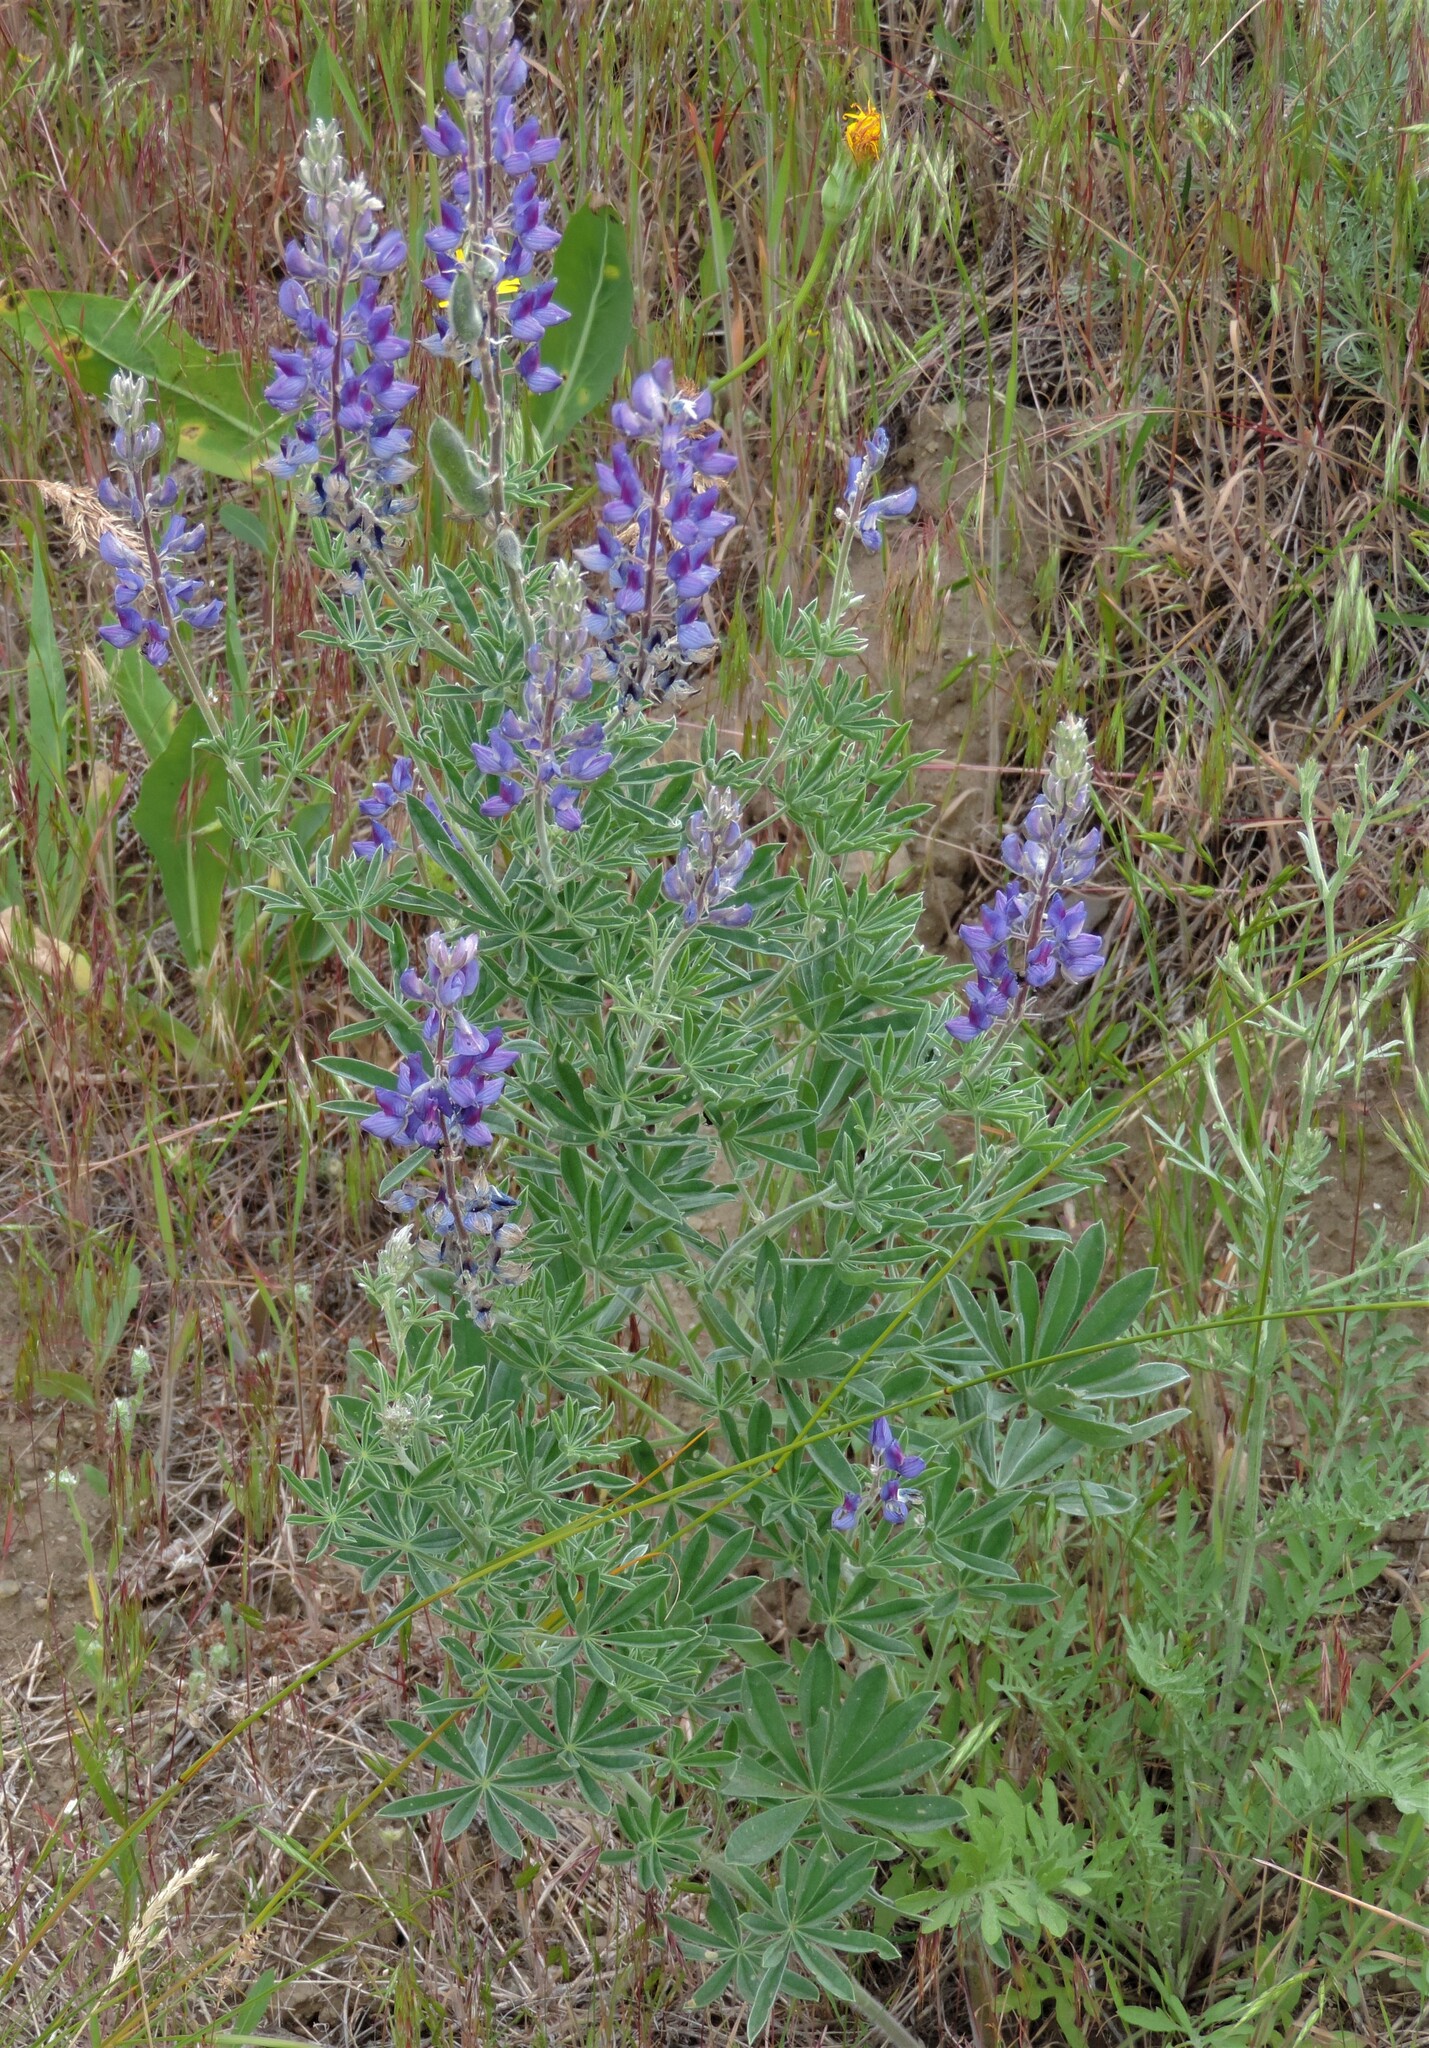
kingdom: Plantae
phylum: Tracheophyta
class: Magnoliopsida
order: Fabales
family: Fabaceae
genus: Lupinus
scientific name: Lupinus sericeus
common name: Silky lupine
